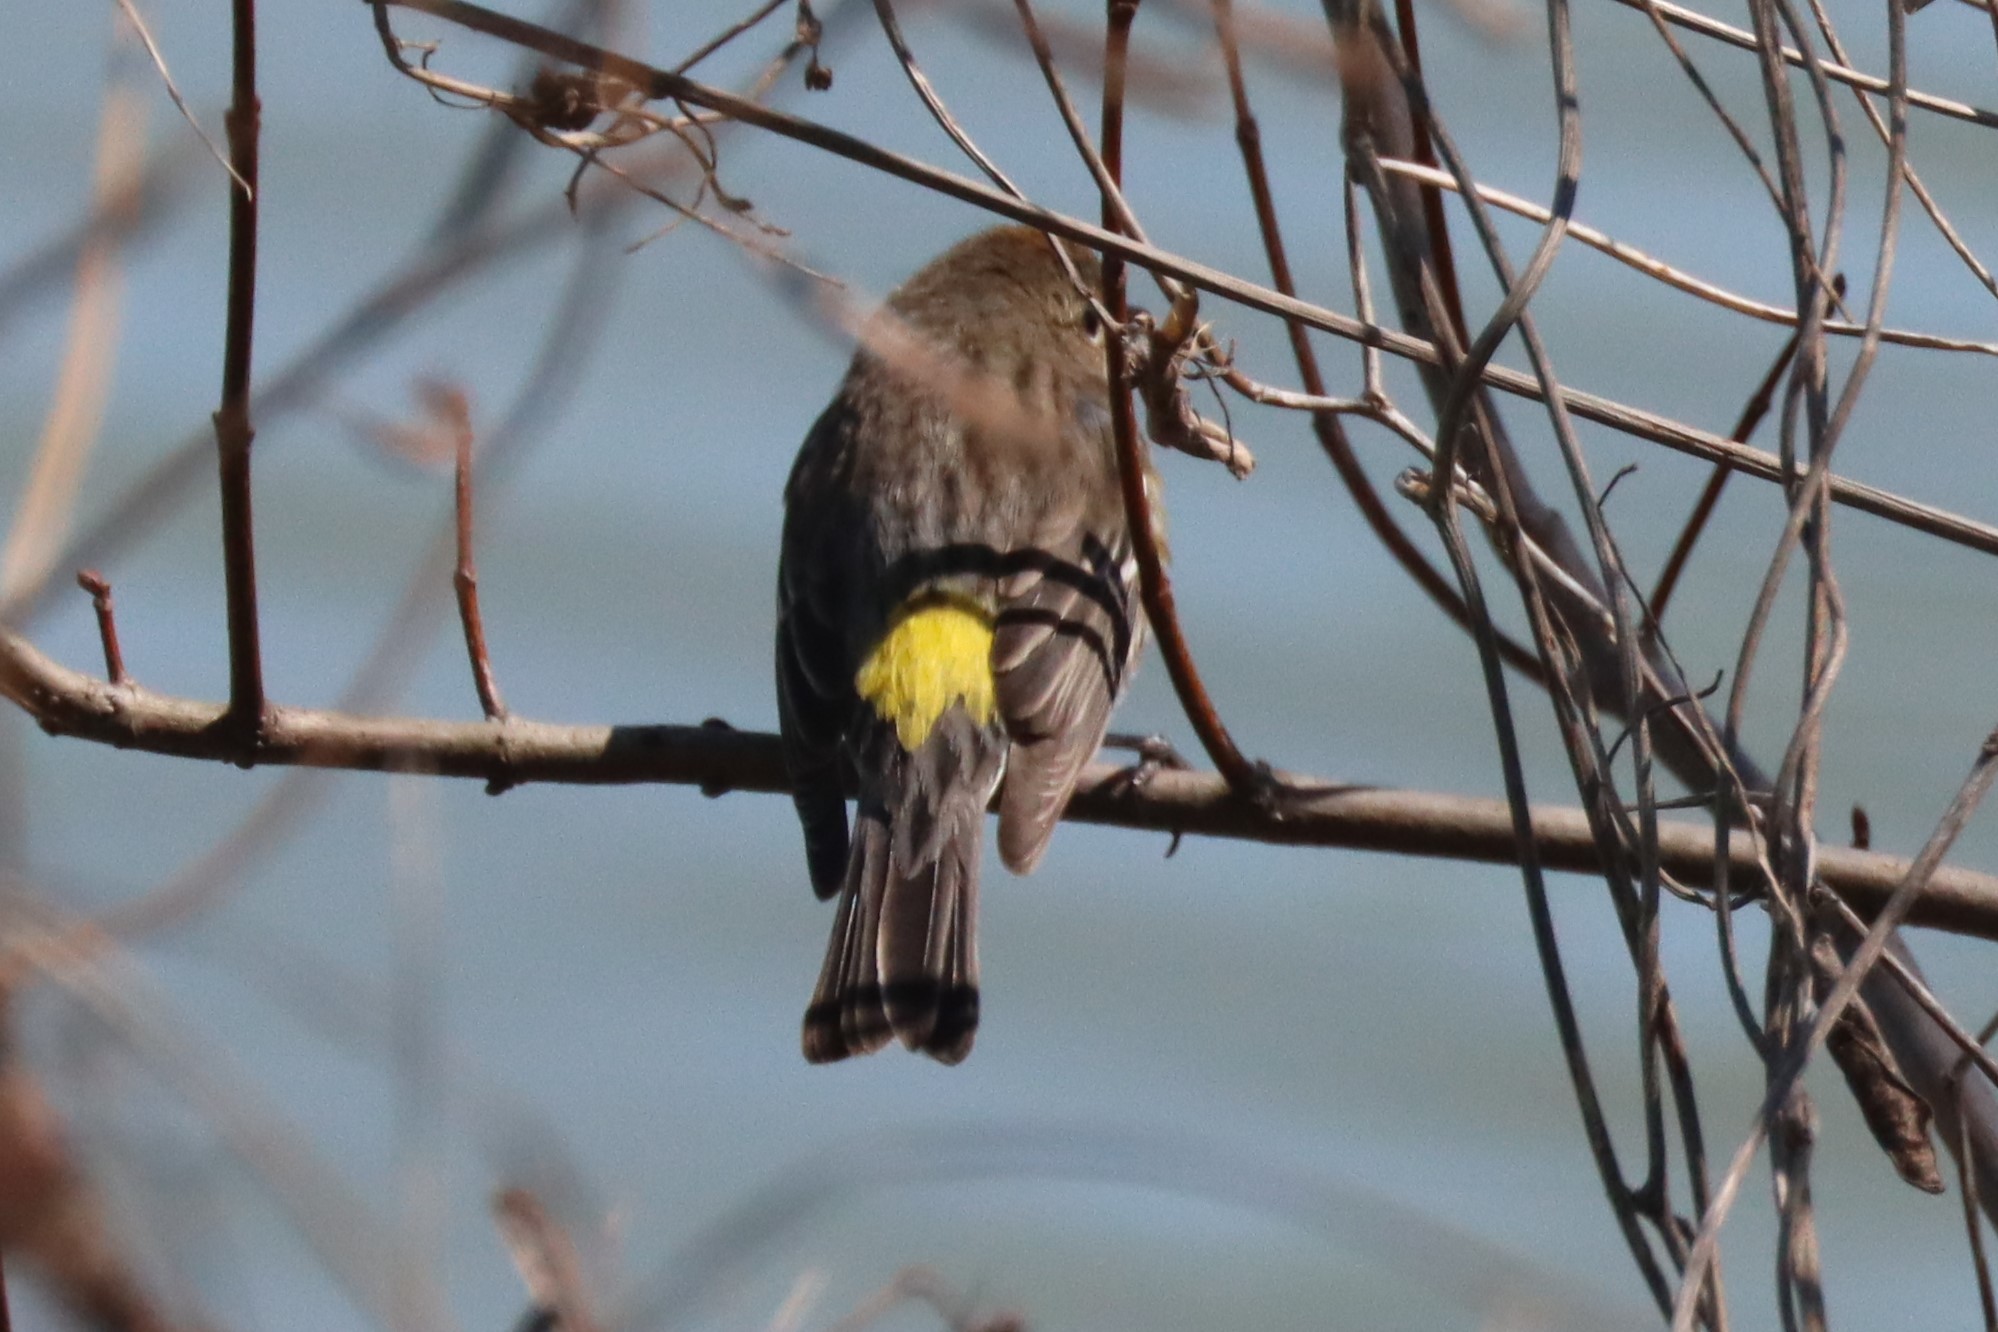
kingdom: Animalia
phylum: Chordata
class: Aves
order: Passeriformes
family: Parulidae
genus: Setophaga
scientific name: Setophaga coronata
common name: Myrtle warbler
